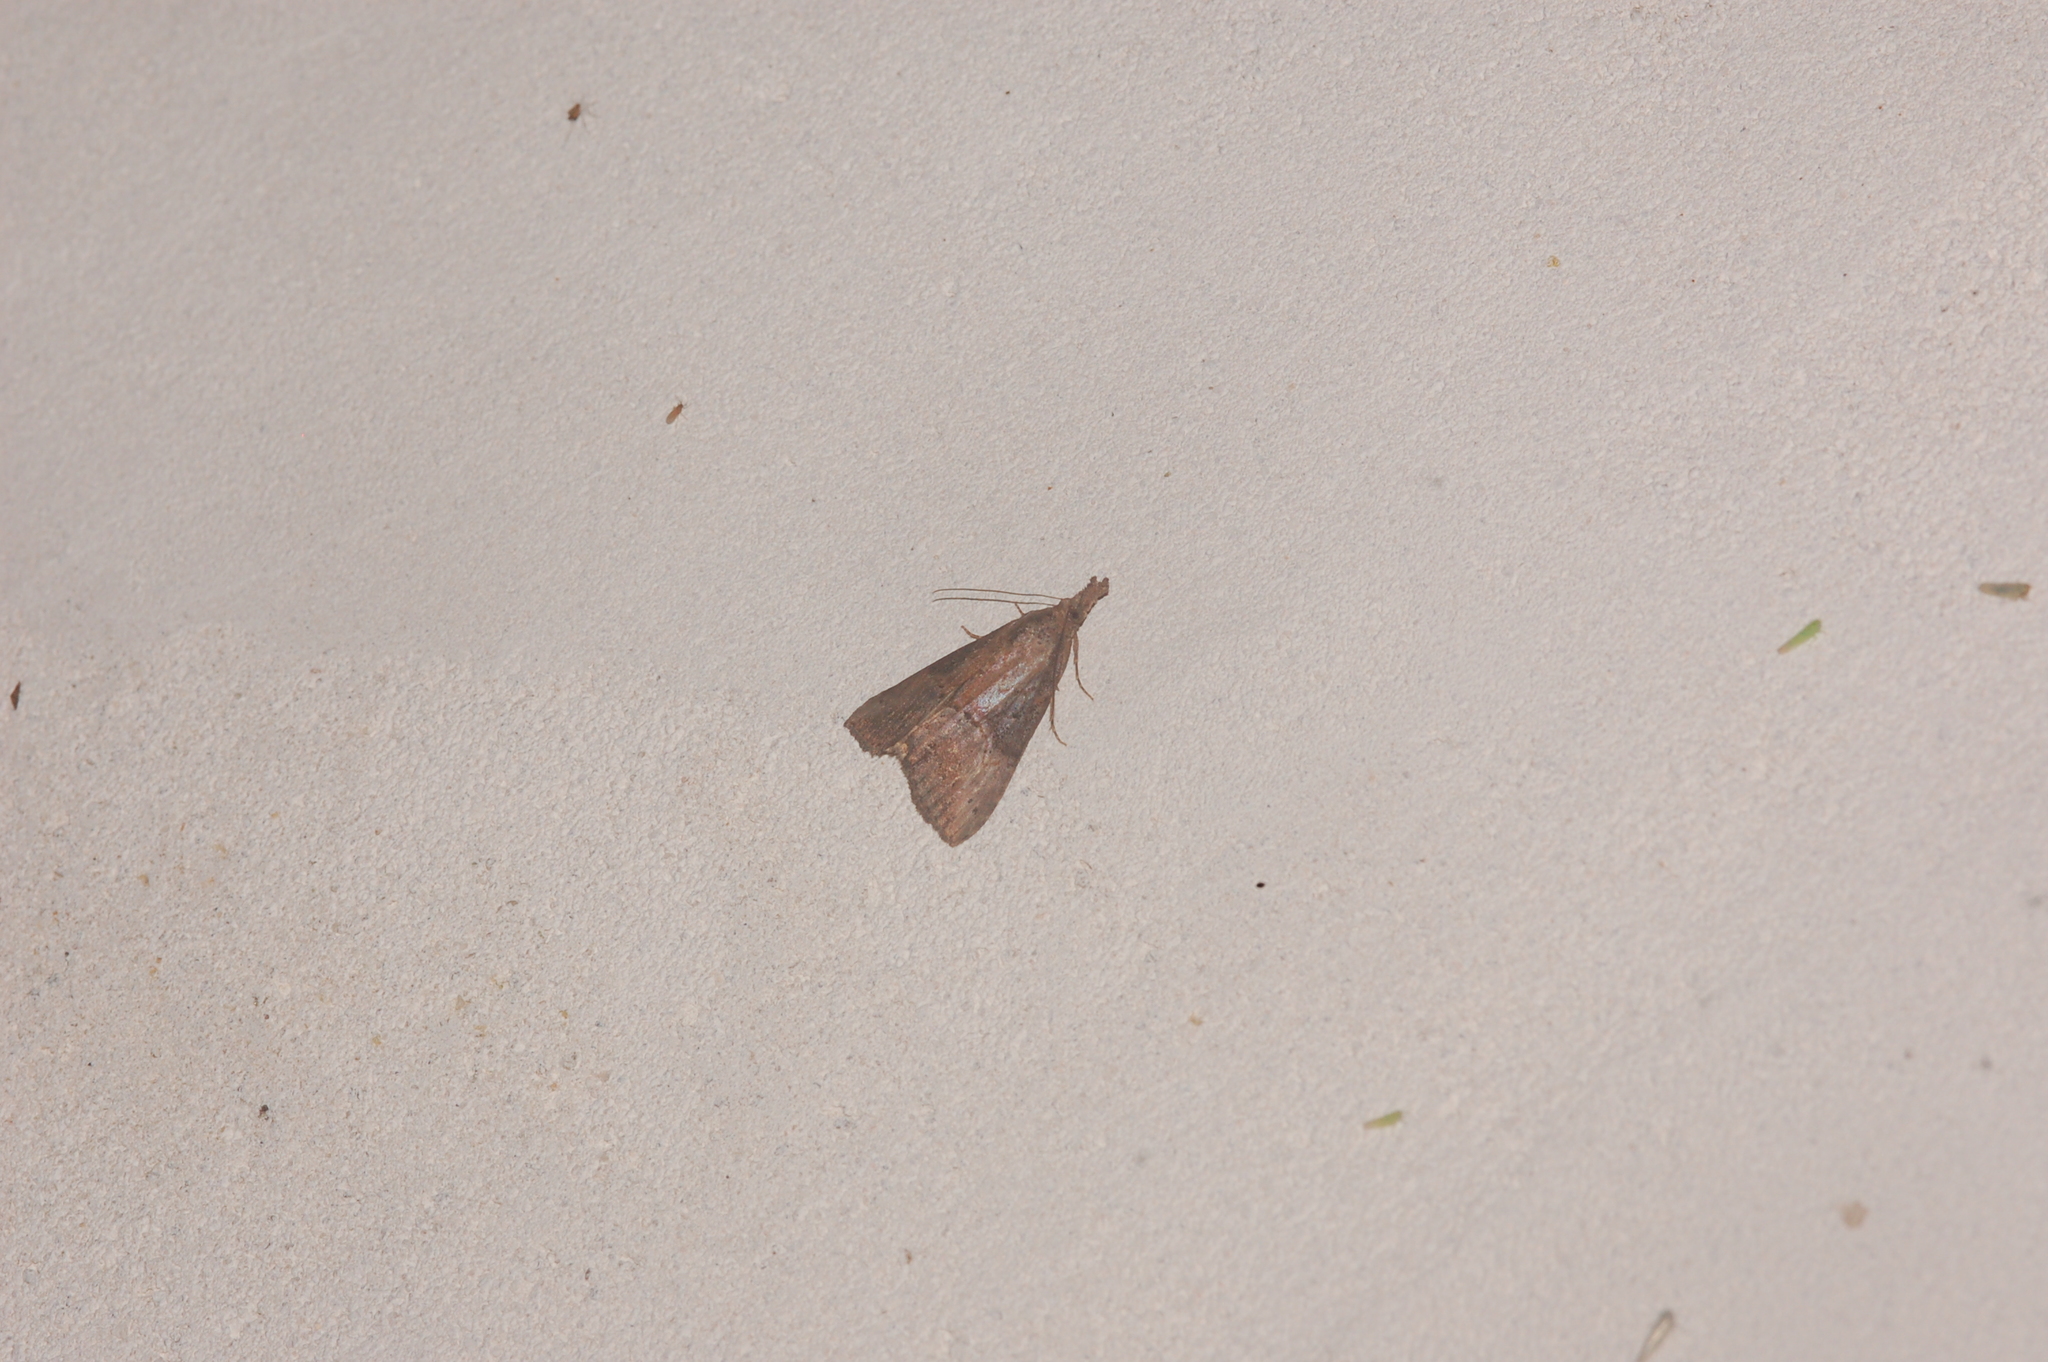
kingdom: Animalia
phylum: Arthropoda
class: Insecta
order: Lepidoptera
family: Erebidae
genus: Hypena
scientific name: Hypena scabra
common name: Green cloverworm
